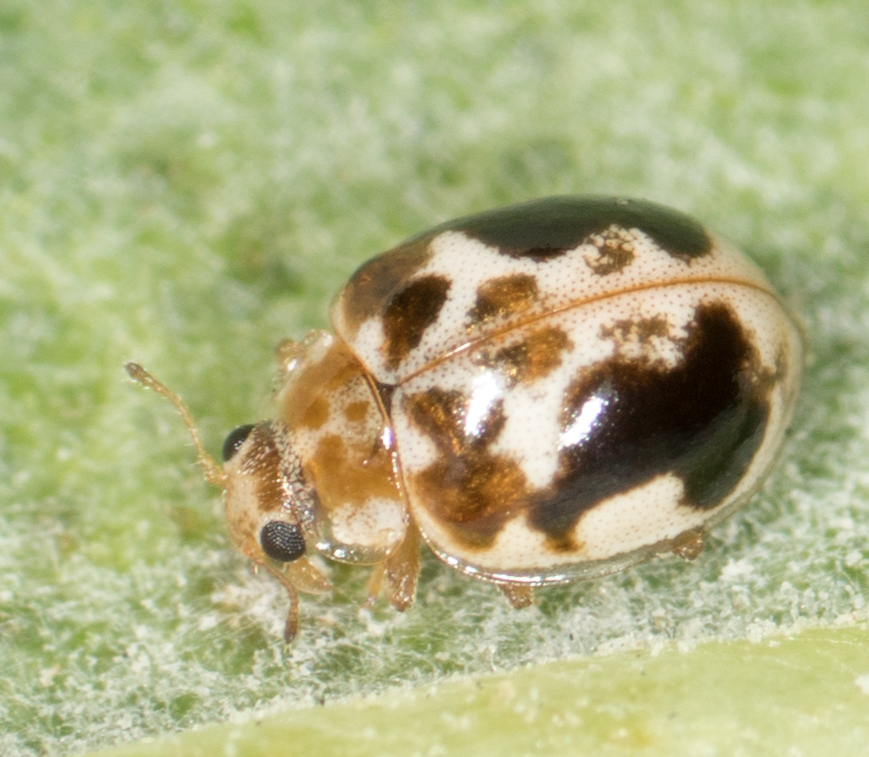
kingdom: Animalia
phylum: Arthropoda
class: Insecta
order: Coleoptera
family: Coccinellidae
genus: Psyllobora
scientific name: Psyllobora renifer
